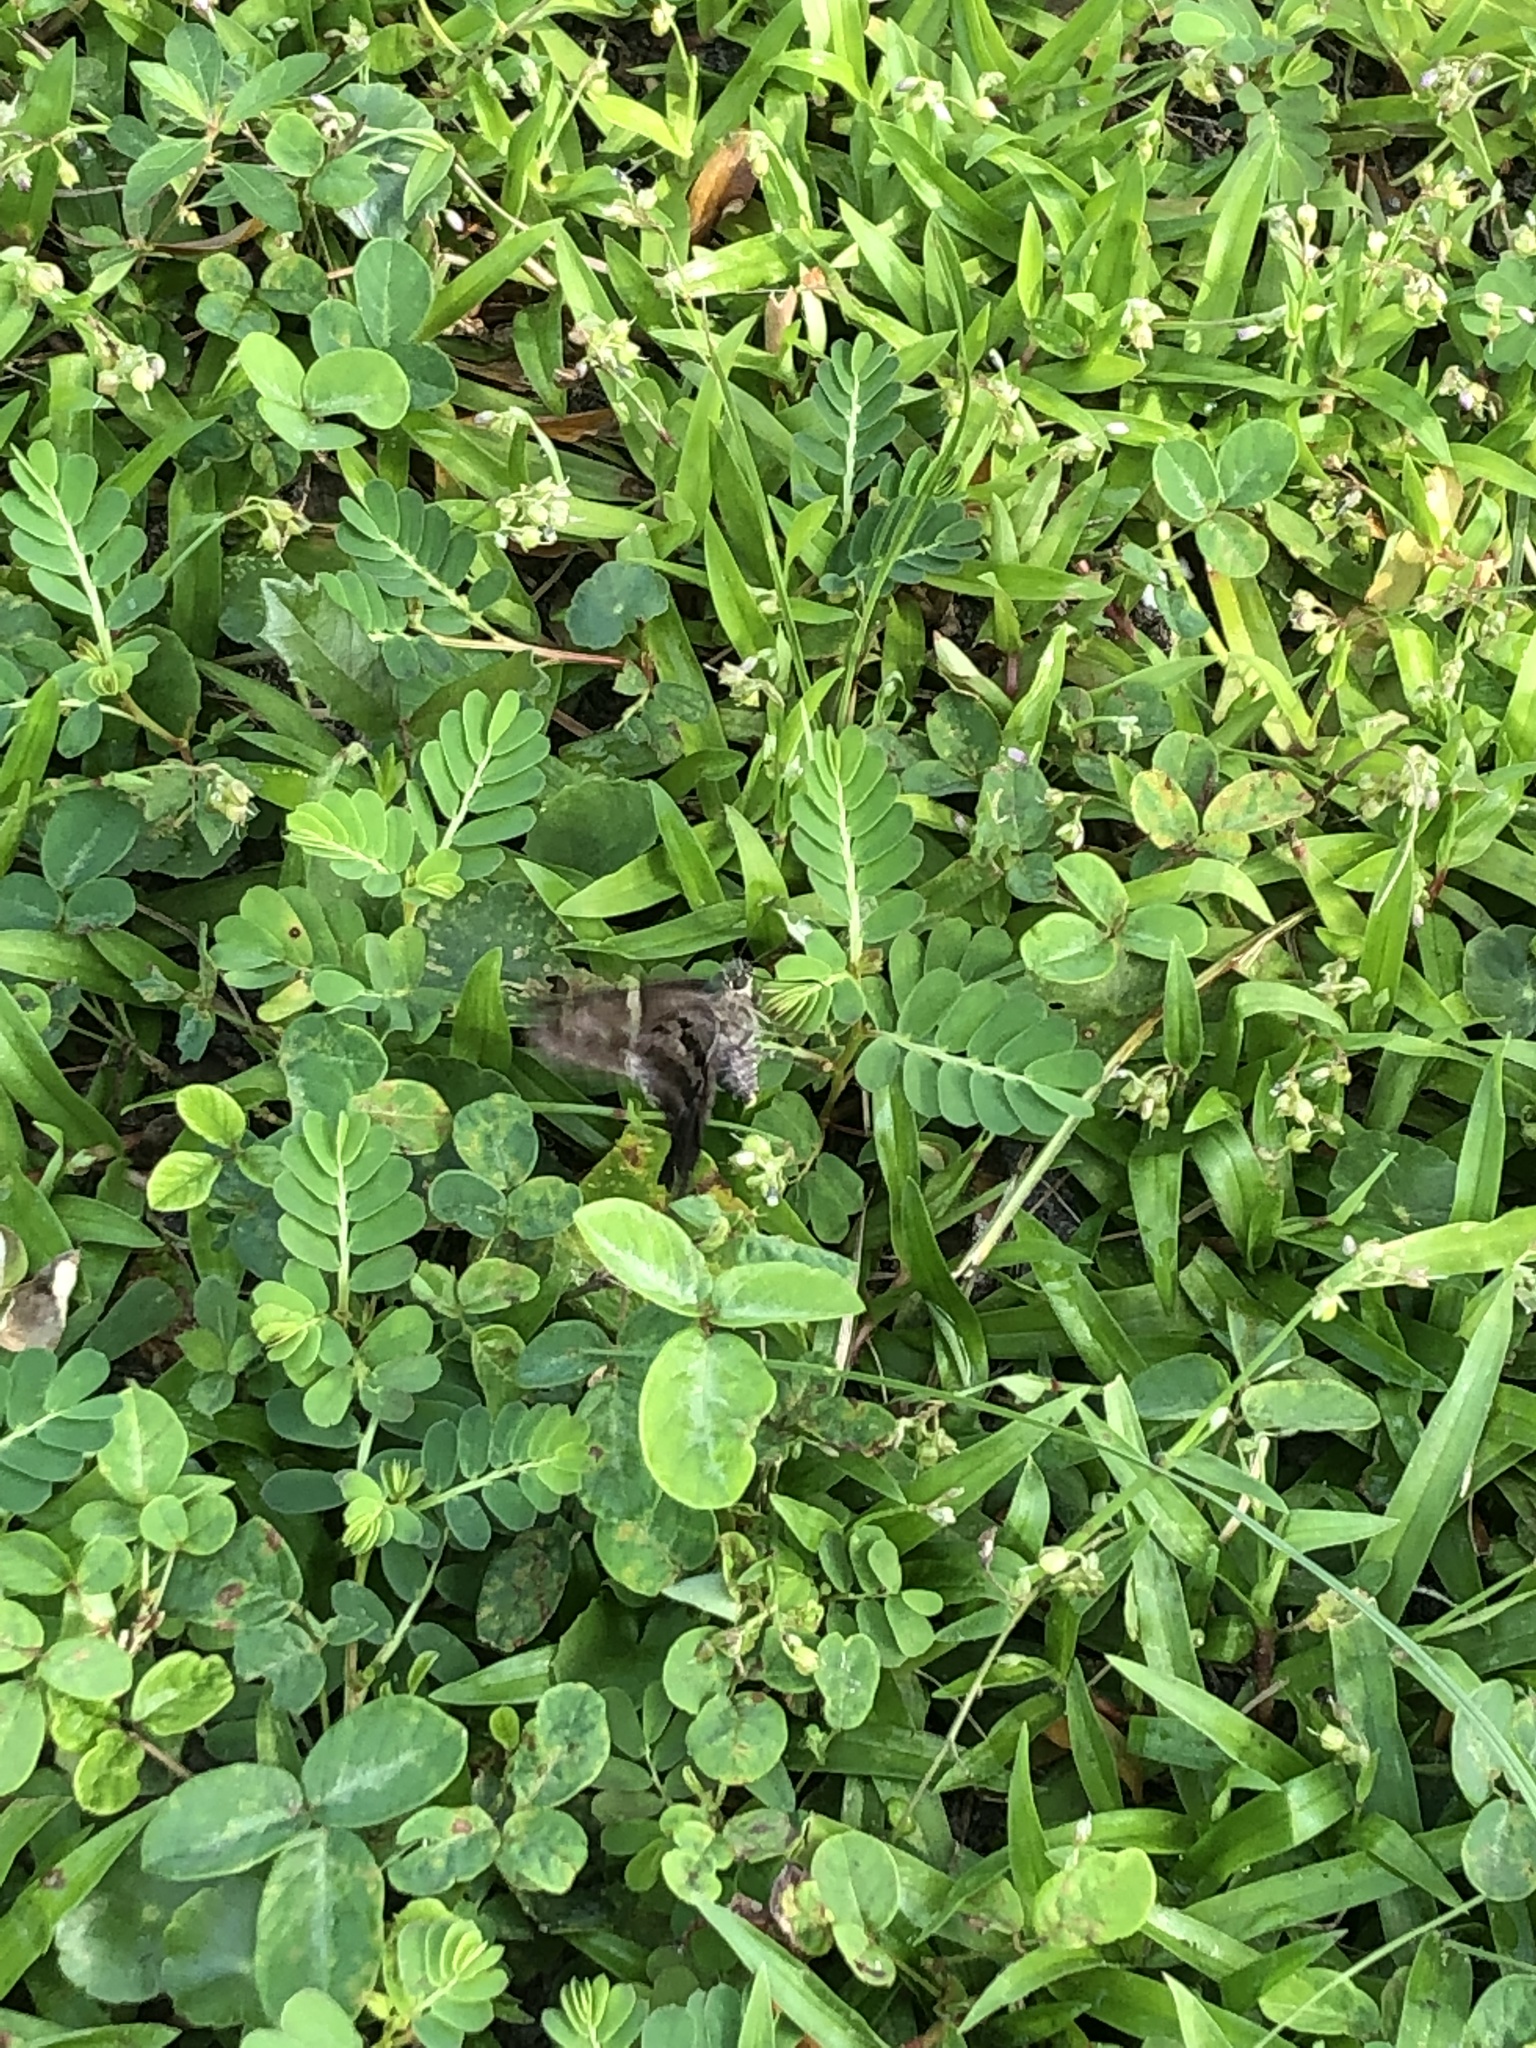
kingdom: Animalia
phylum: Arthropoda
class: Insecta
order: Lepidoptera
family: Hesperiidae
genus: Urbanus
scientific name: Urbanus proteus
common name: Long-tailed skipper
